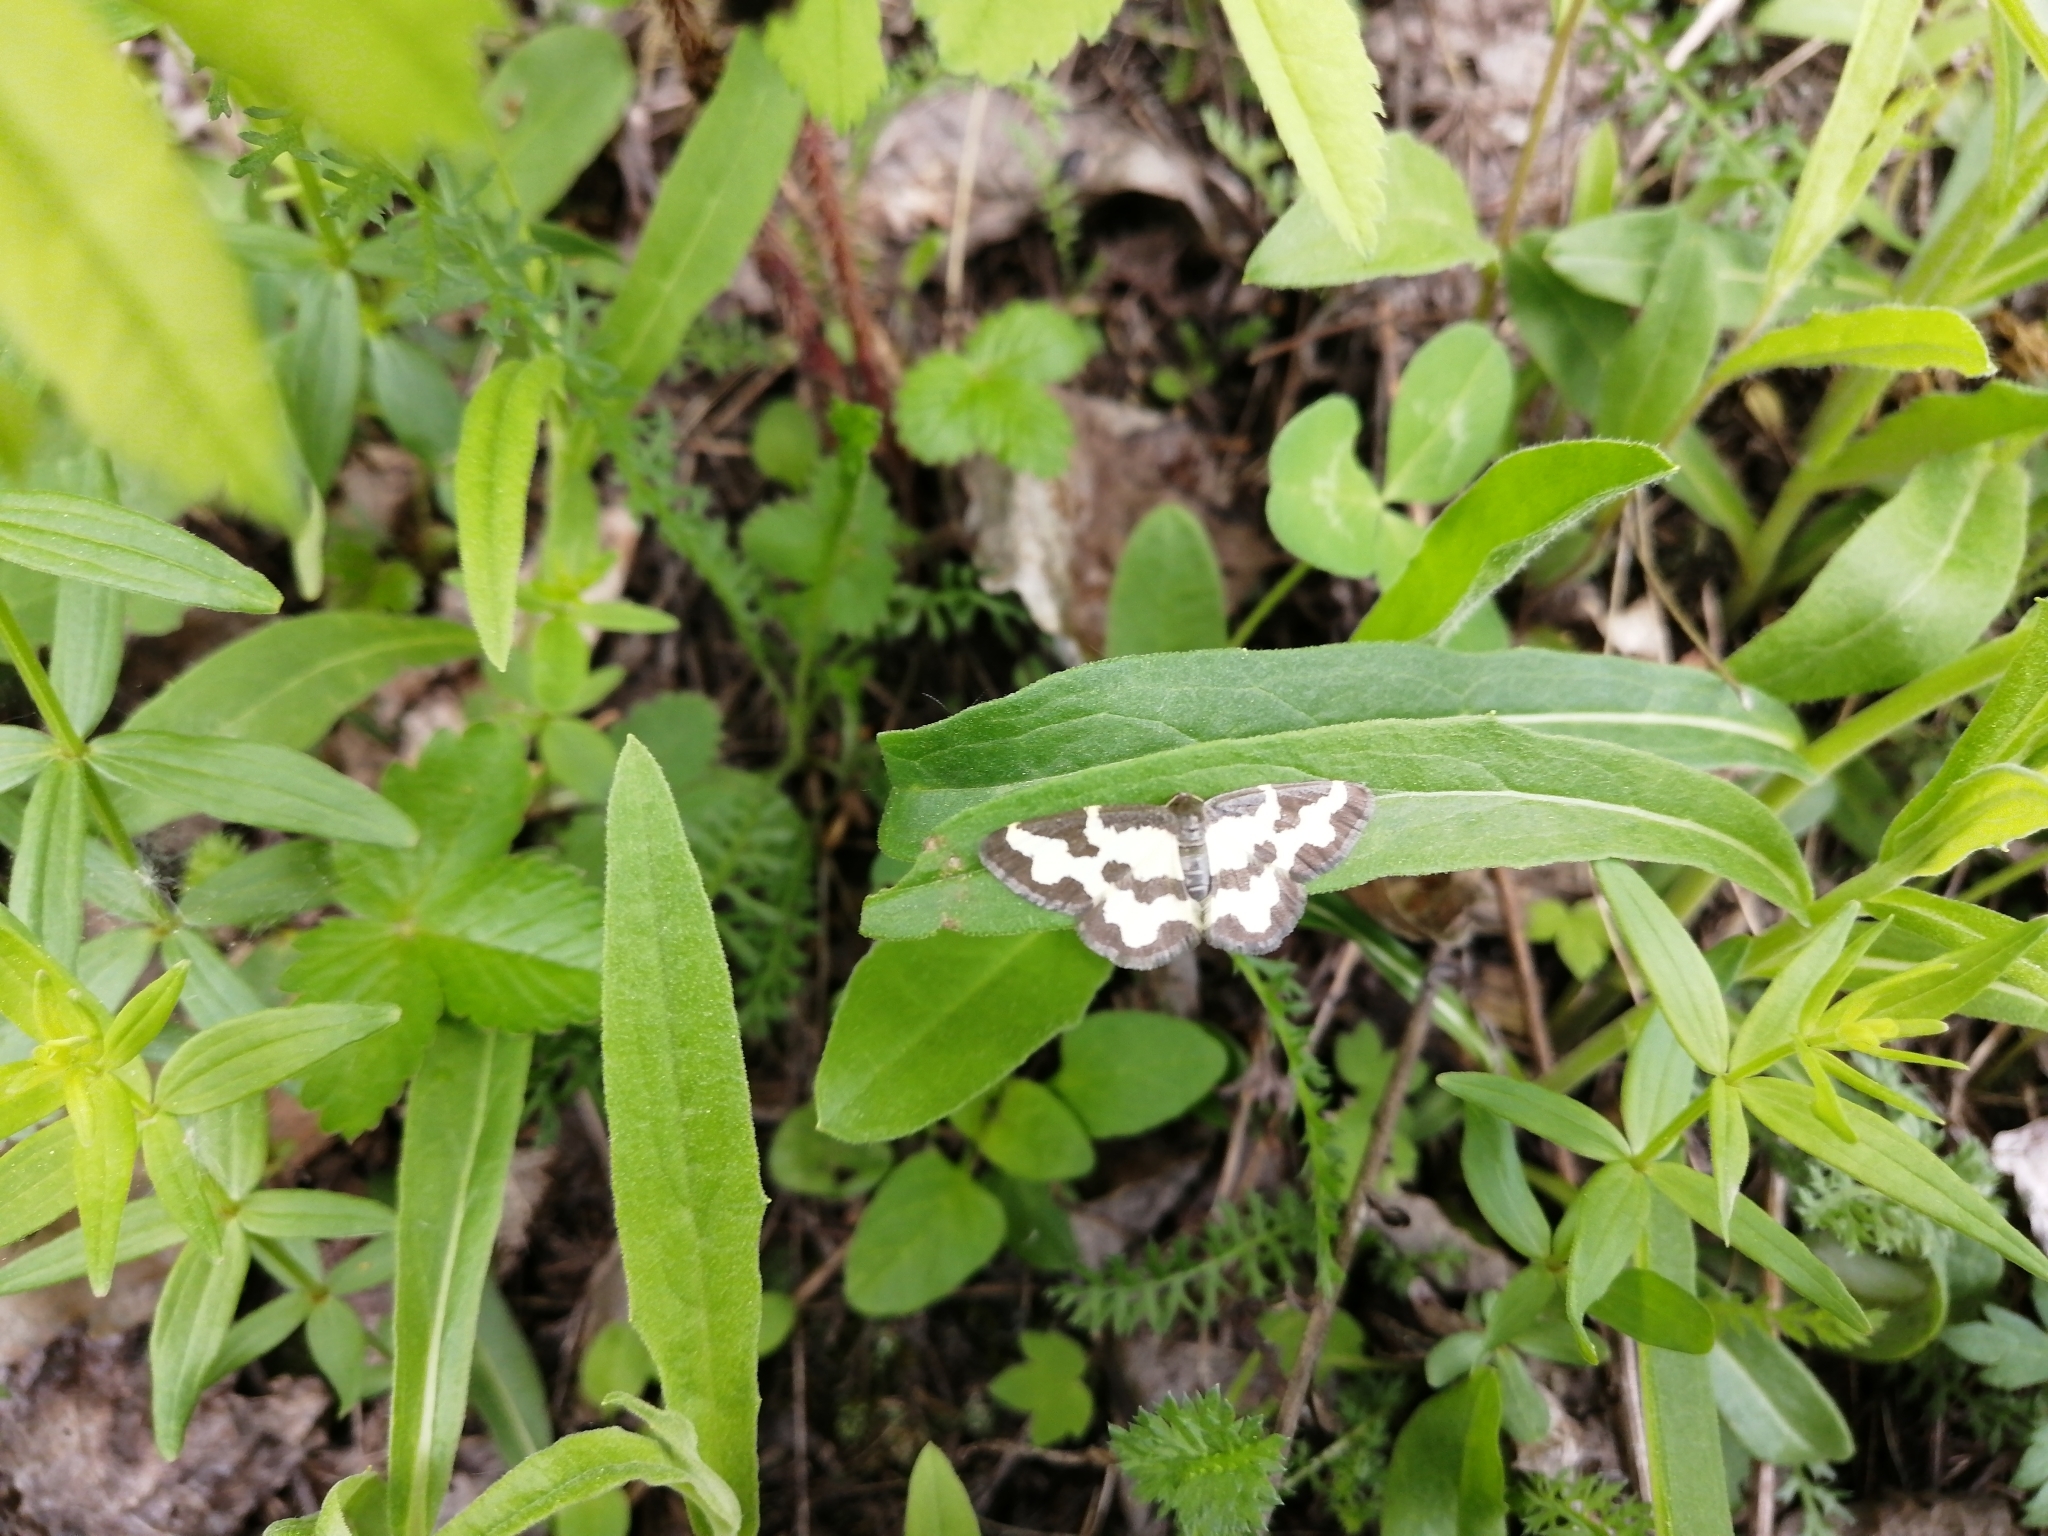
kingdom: Animalia
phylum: Arthropoda
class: Insecta
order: Lepidoptera
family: Geometridae
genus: Lomaspilis
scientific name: Lomaspilis marginata
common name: Clouded border
